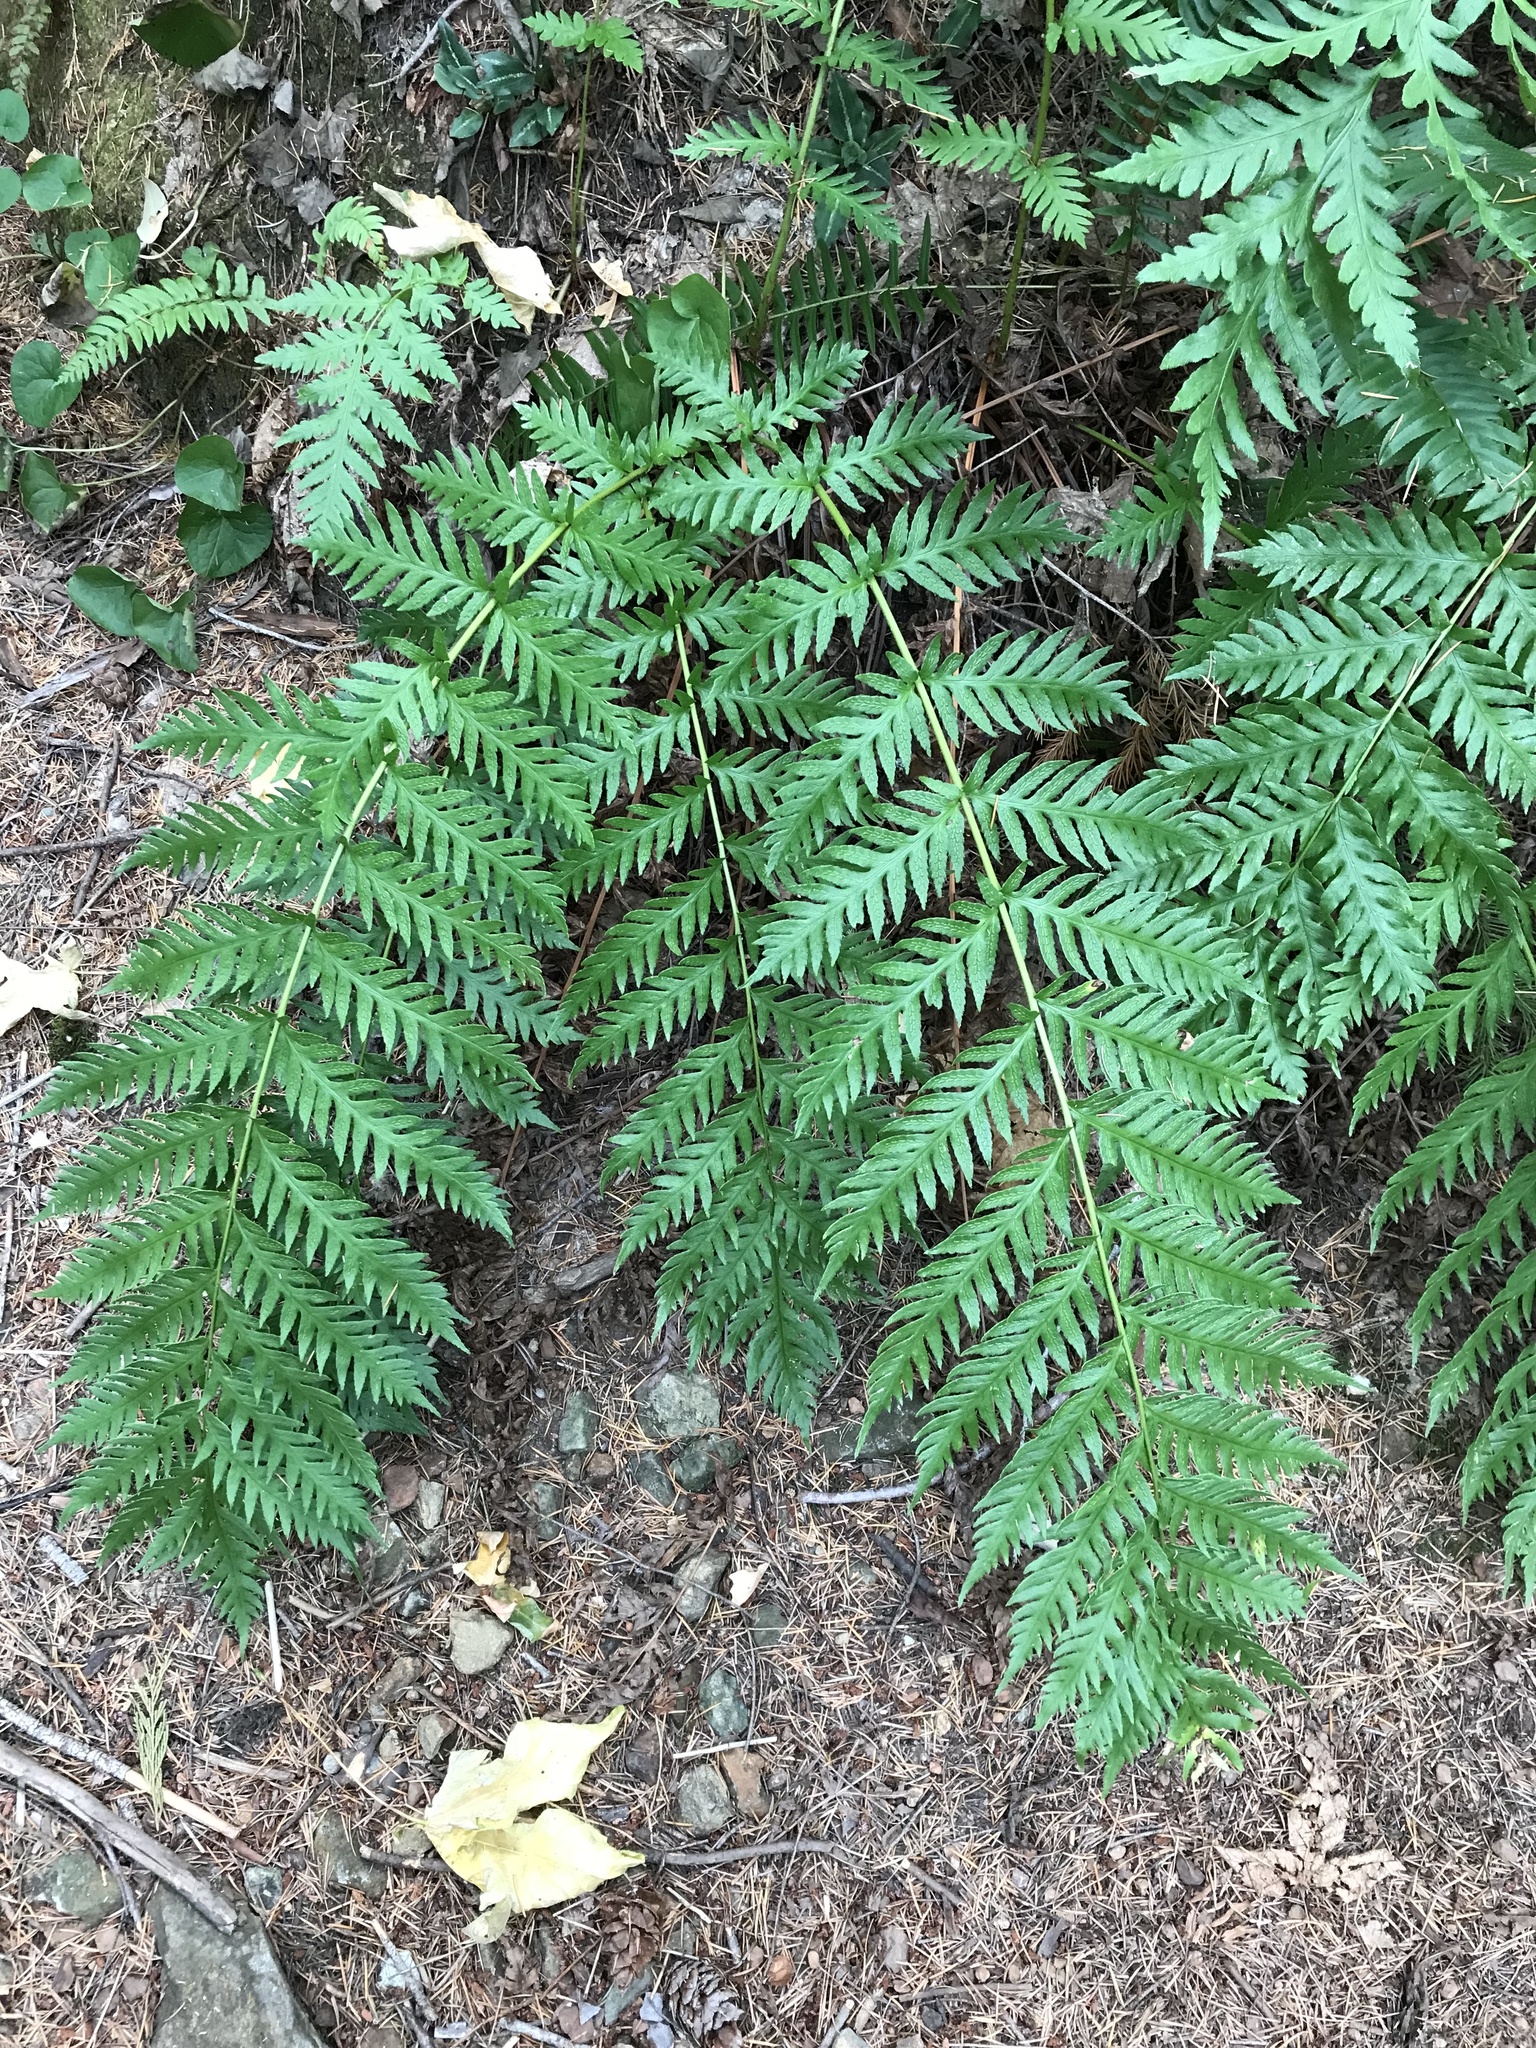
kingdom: Plantae
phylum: Tracheophyta
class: Polypodiopsida
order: Polypodiales
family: Blechnaceae
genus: Woodwardia
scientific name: Woodwardia fimbriata
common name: Giant chain fern
